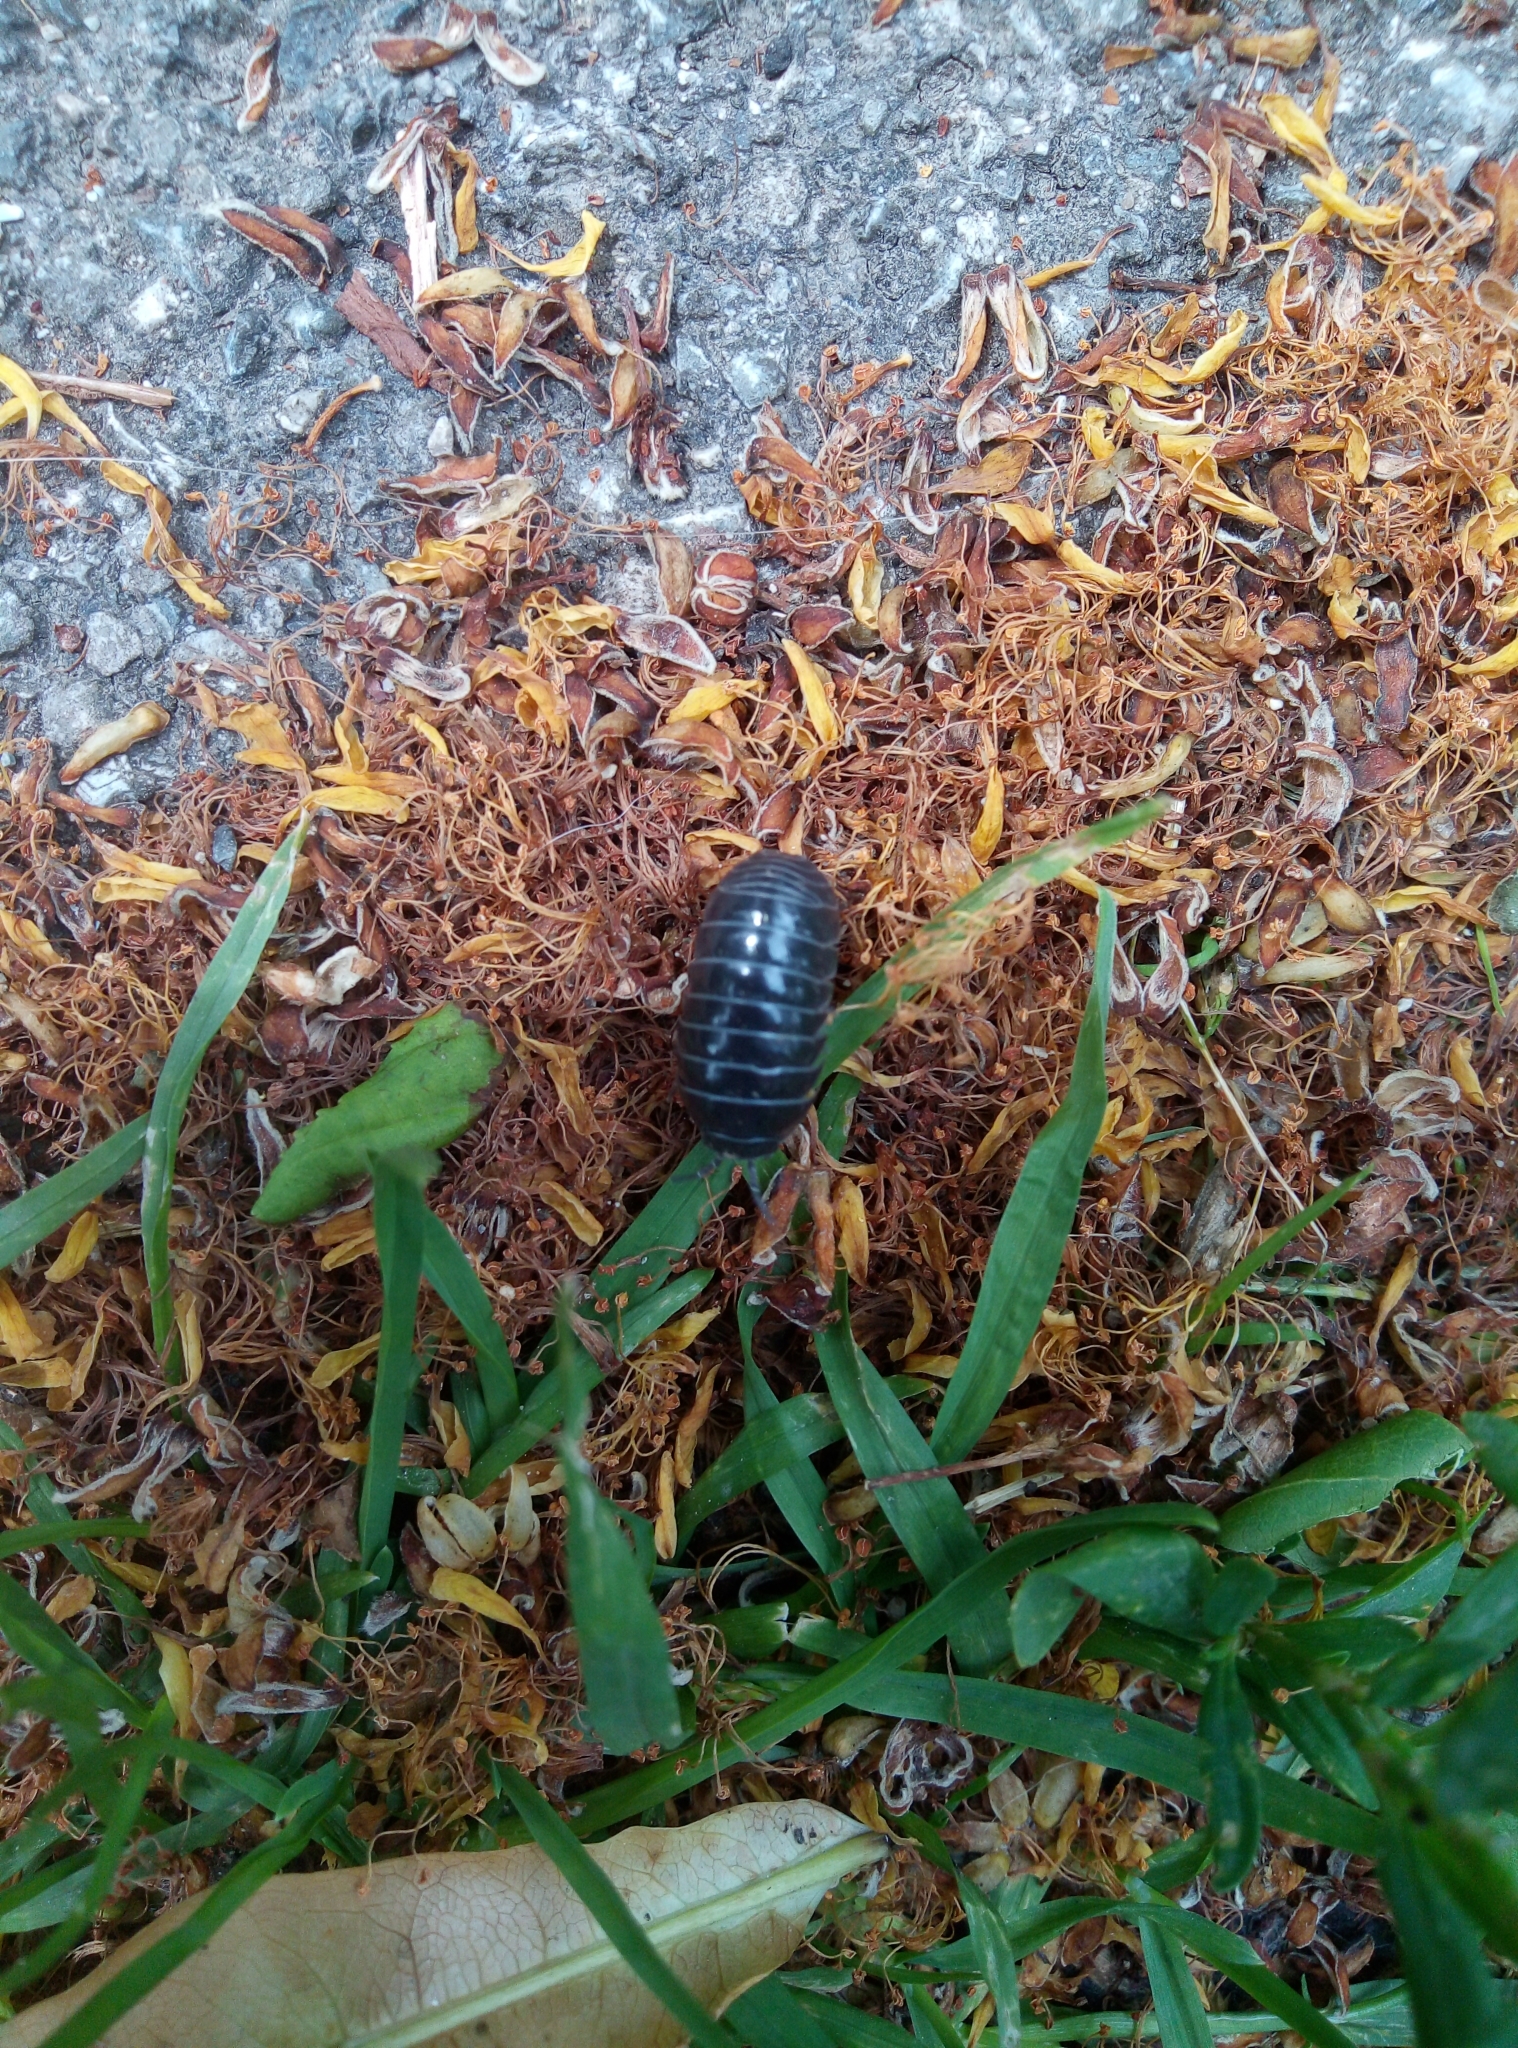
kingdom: Animalia
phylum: Arthropoda
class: Malacostraca
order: Isopoda
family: Armadillidiidae
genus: Armadillidium
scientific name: Armadillidium vulgare
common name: Common pill woodlouse
